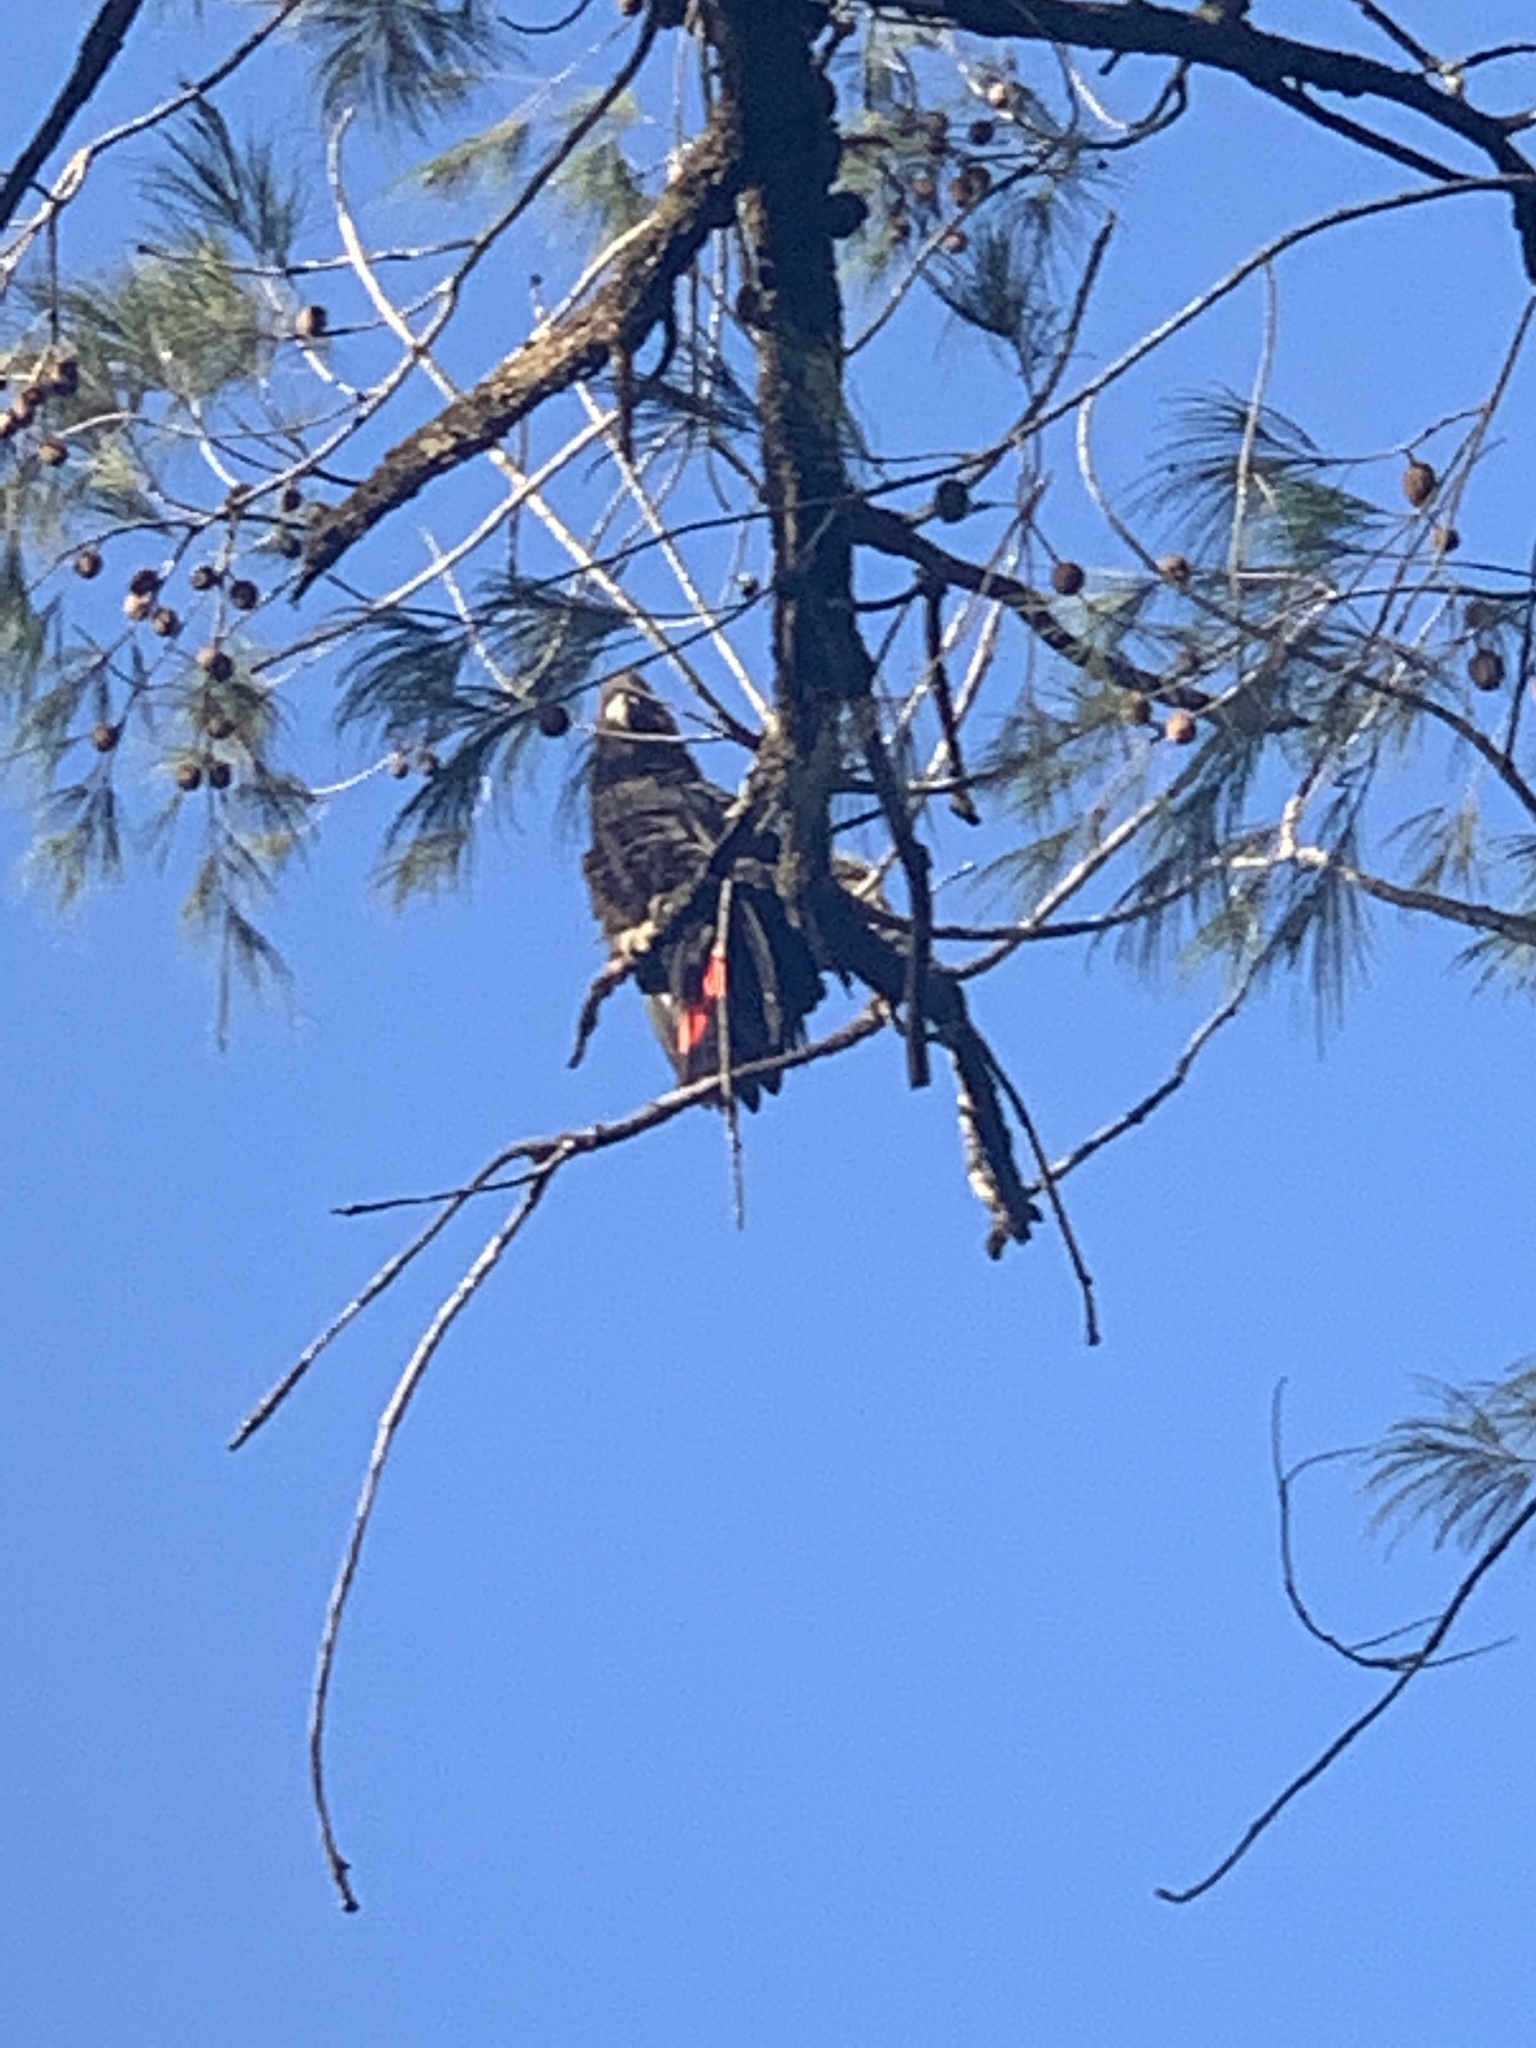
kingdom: Animalia
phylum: Chordata
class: Aves
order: Psittaciformes
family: Psittacidae
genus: Calyptorhynchus
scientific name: Calyptorhynchus lathami
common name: Glossy black cockatoo
